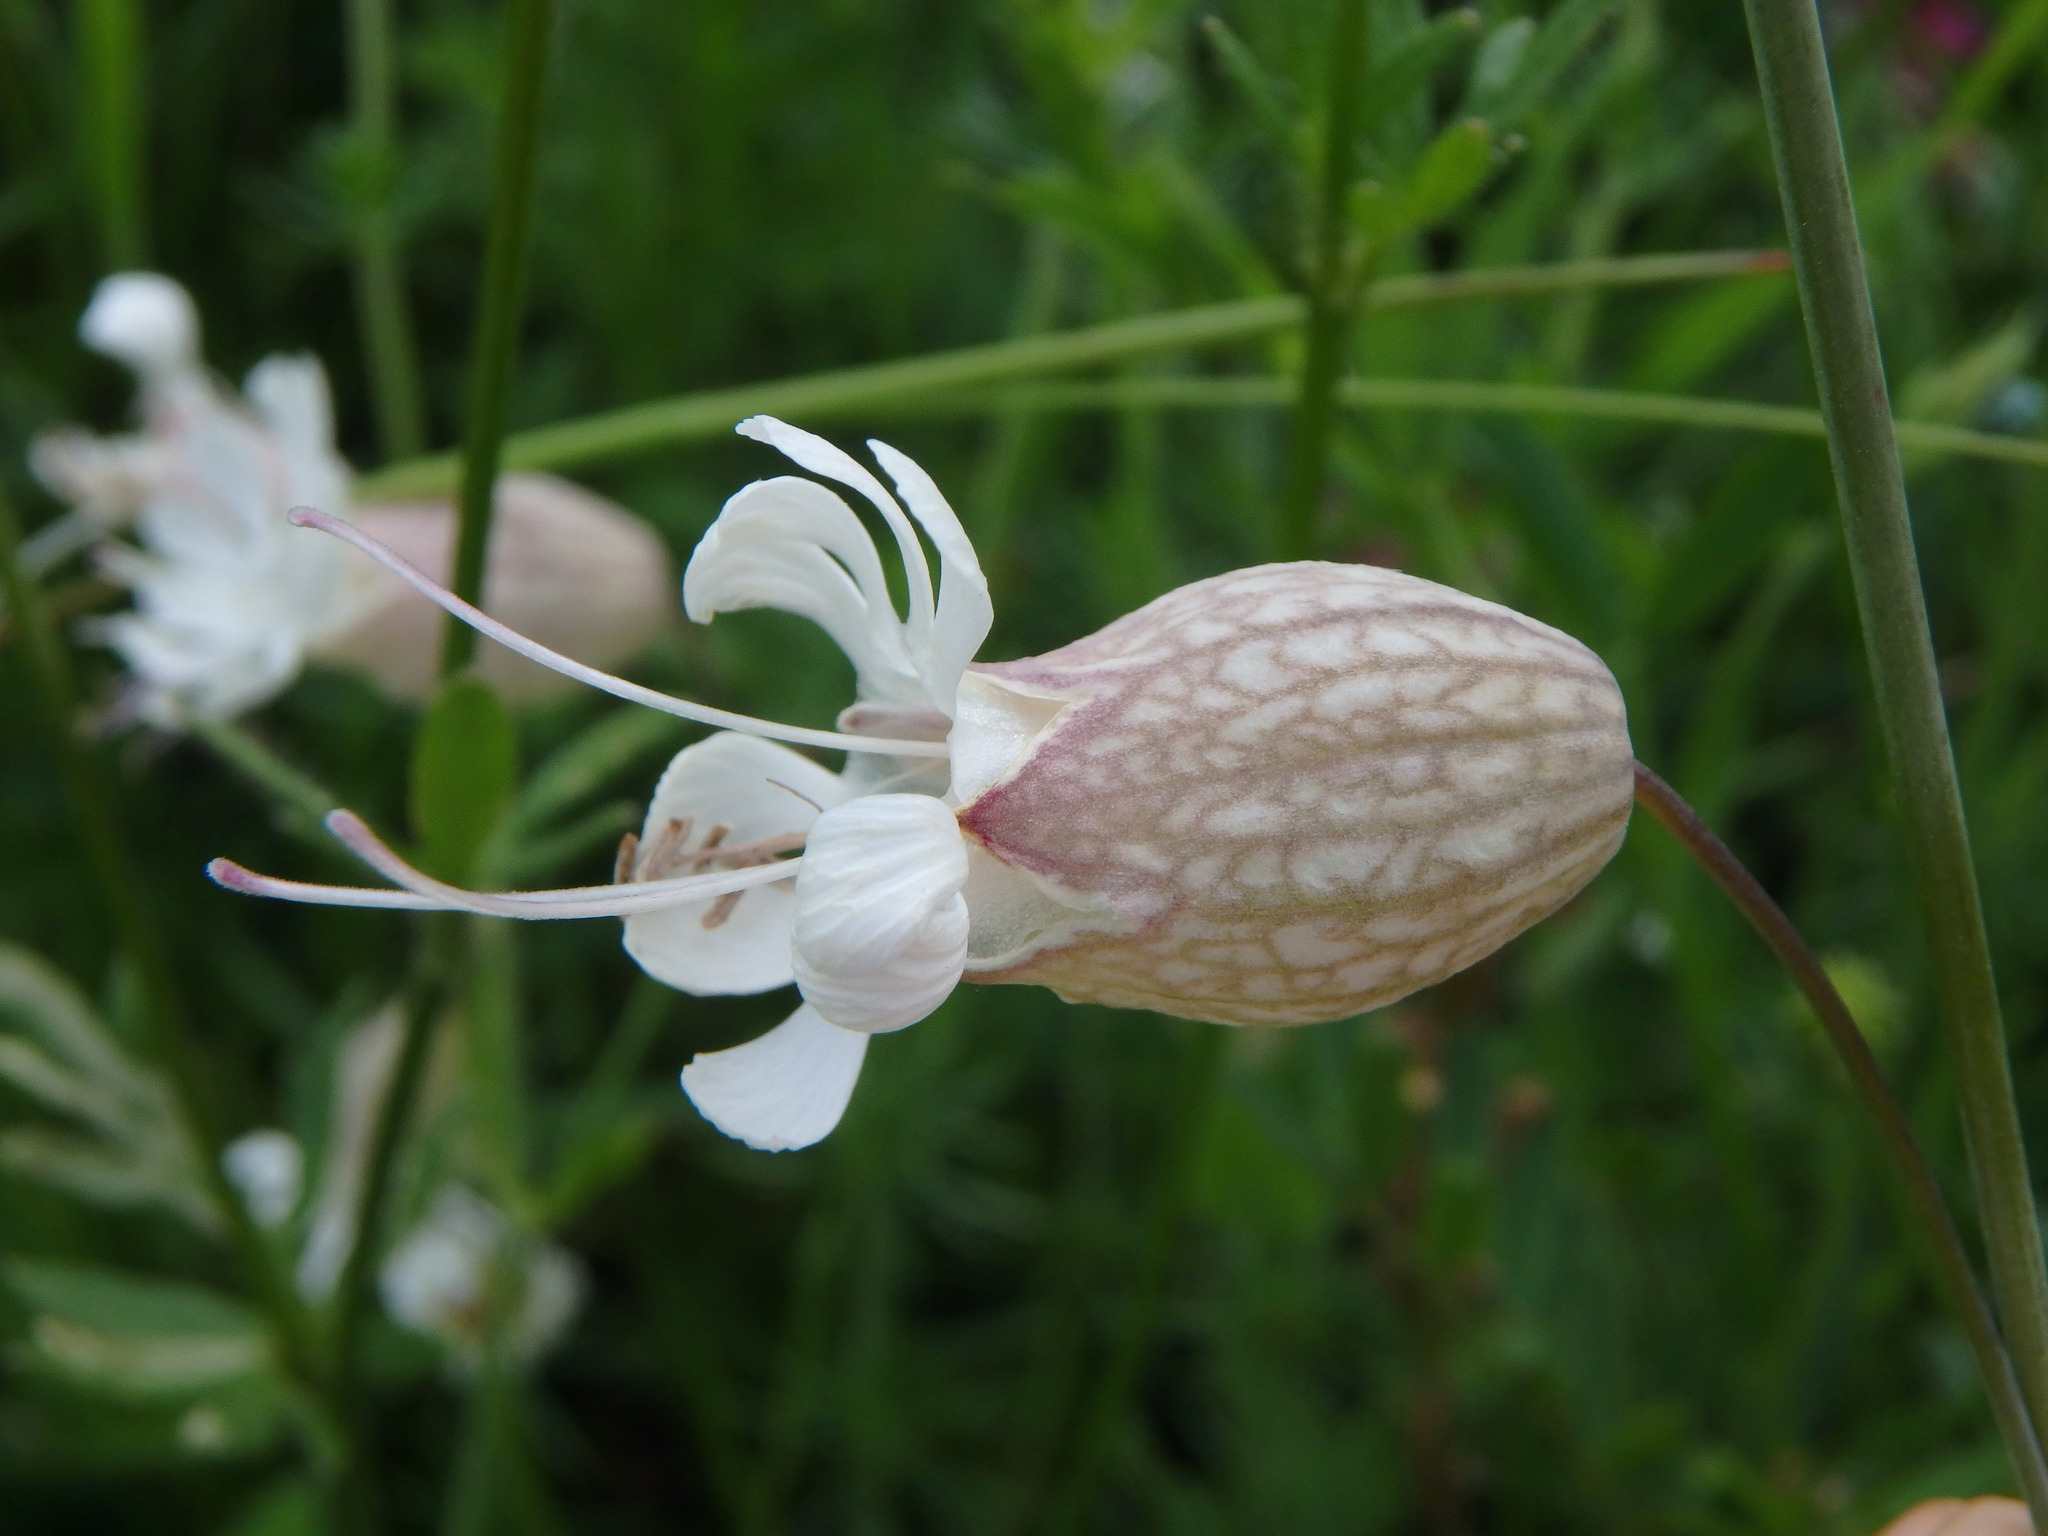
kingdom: Plantae
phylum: Tracheophyta
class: Magnoliopsida
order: Caryophyllales
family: Caryophyllaceae
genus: Silene
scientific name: Silene vulgaris
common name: Bladder campion
